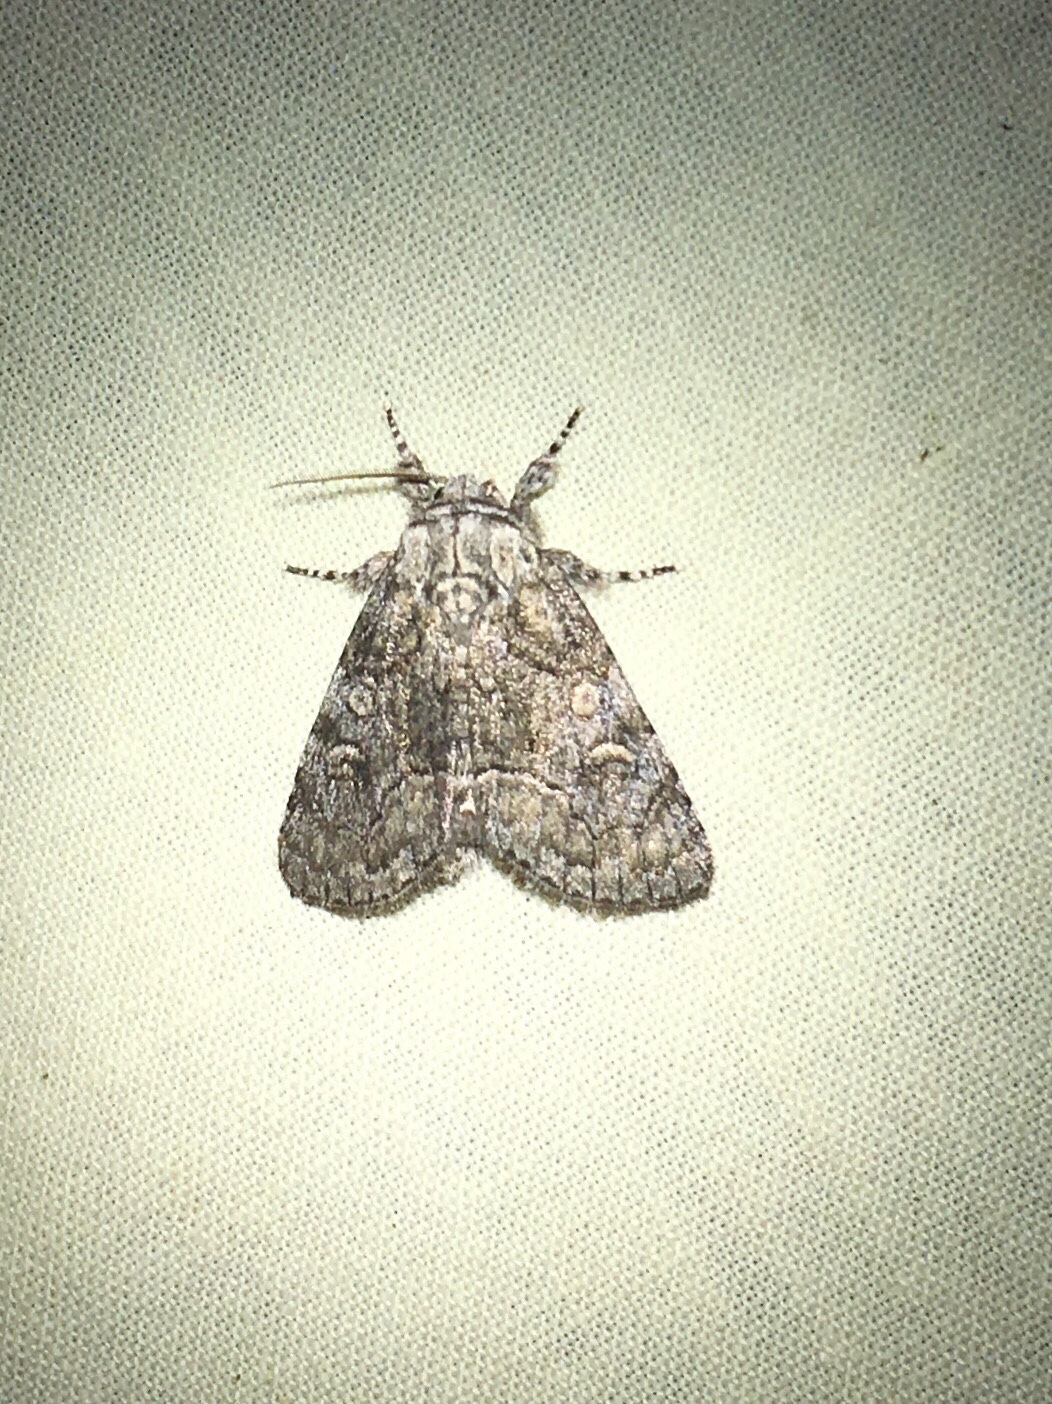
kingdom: Animalia
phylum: Arthropoda
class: Insecta
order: Lepidoptera
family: Noctuidae
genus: Raphia
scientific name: Raphia frater
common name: Brother
